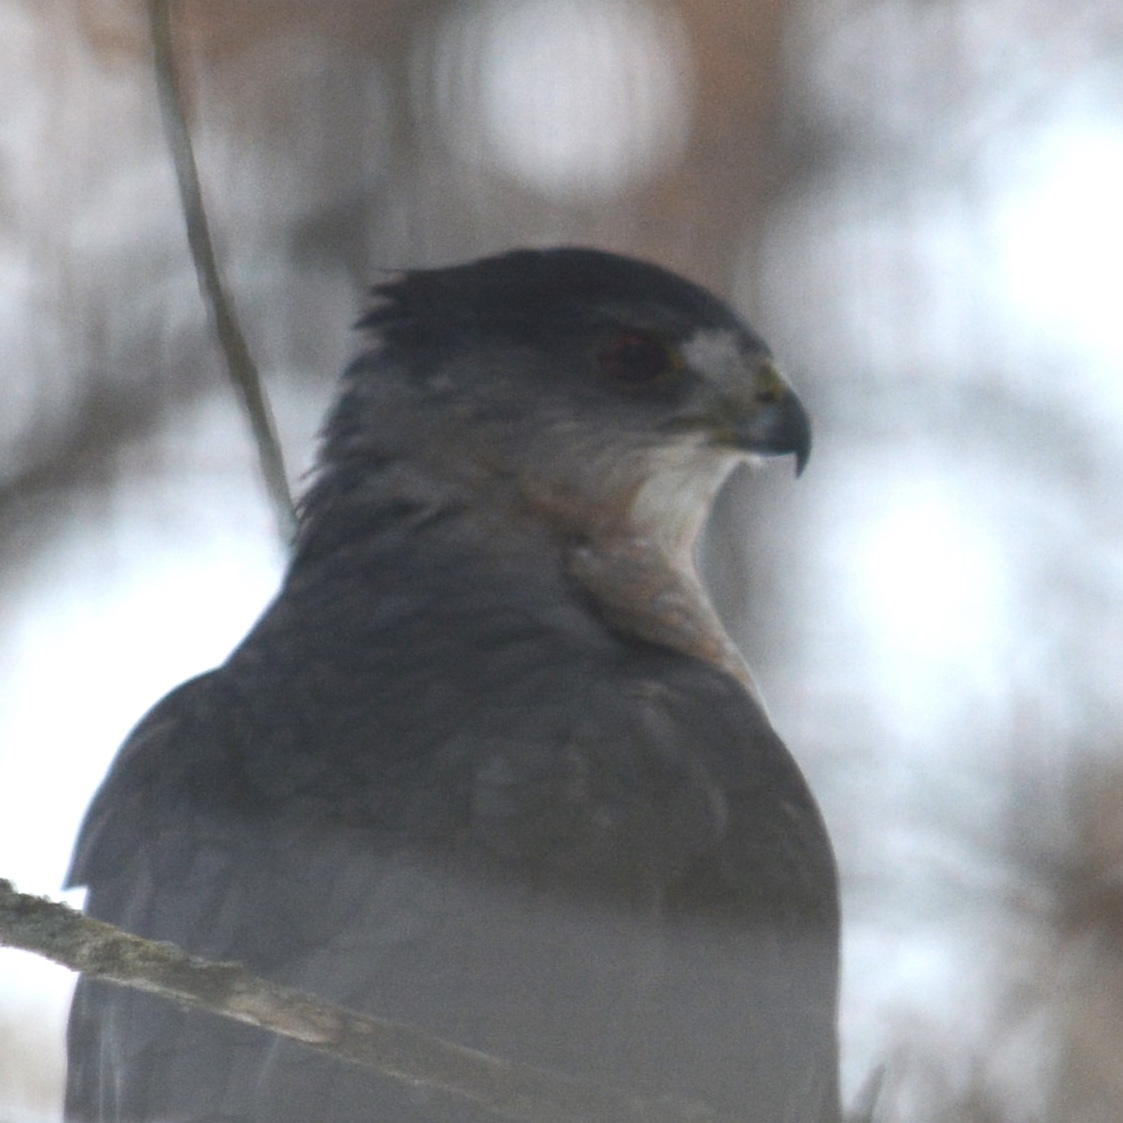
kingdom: Animalia
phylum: Chordata
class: Aves
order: Accipitriformes
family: Accipitridae
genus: Accipiter
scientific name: Accipiter cooperii
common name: Cooper's hawk
